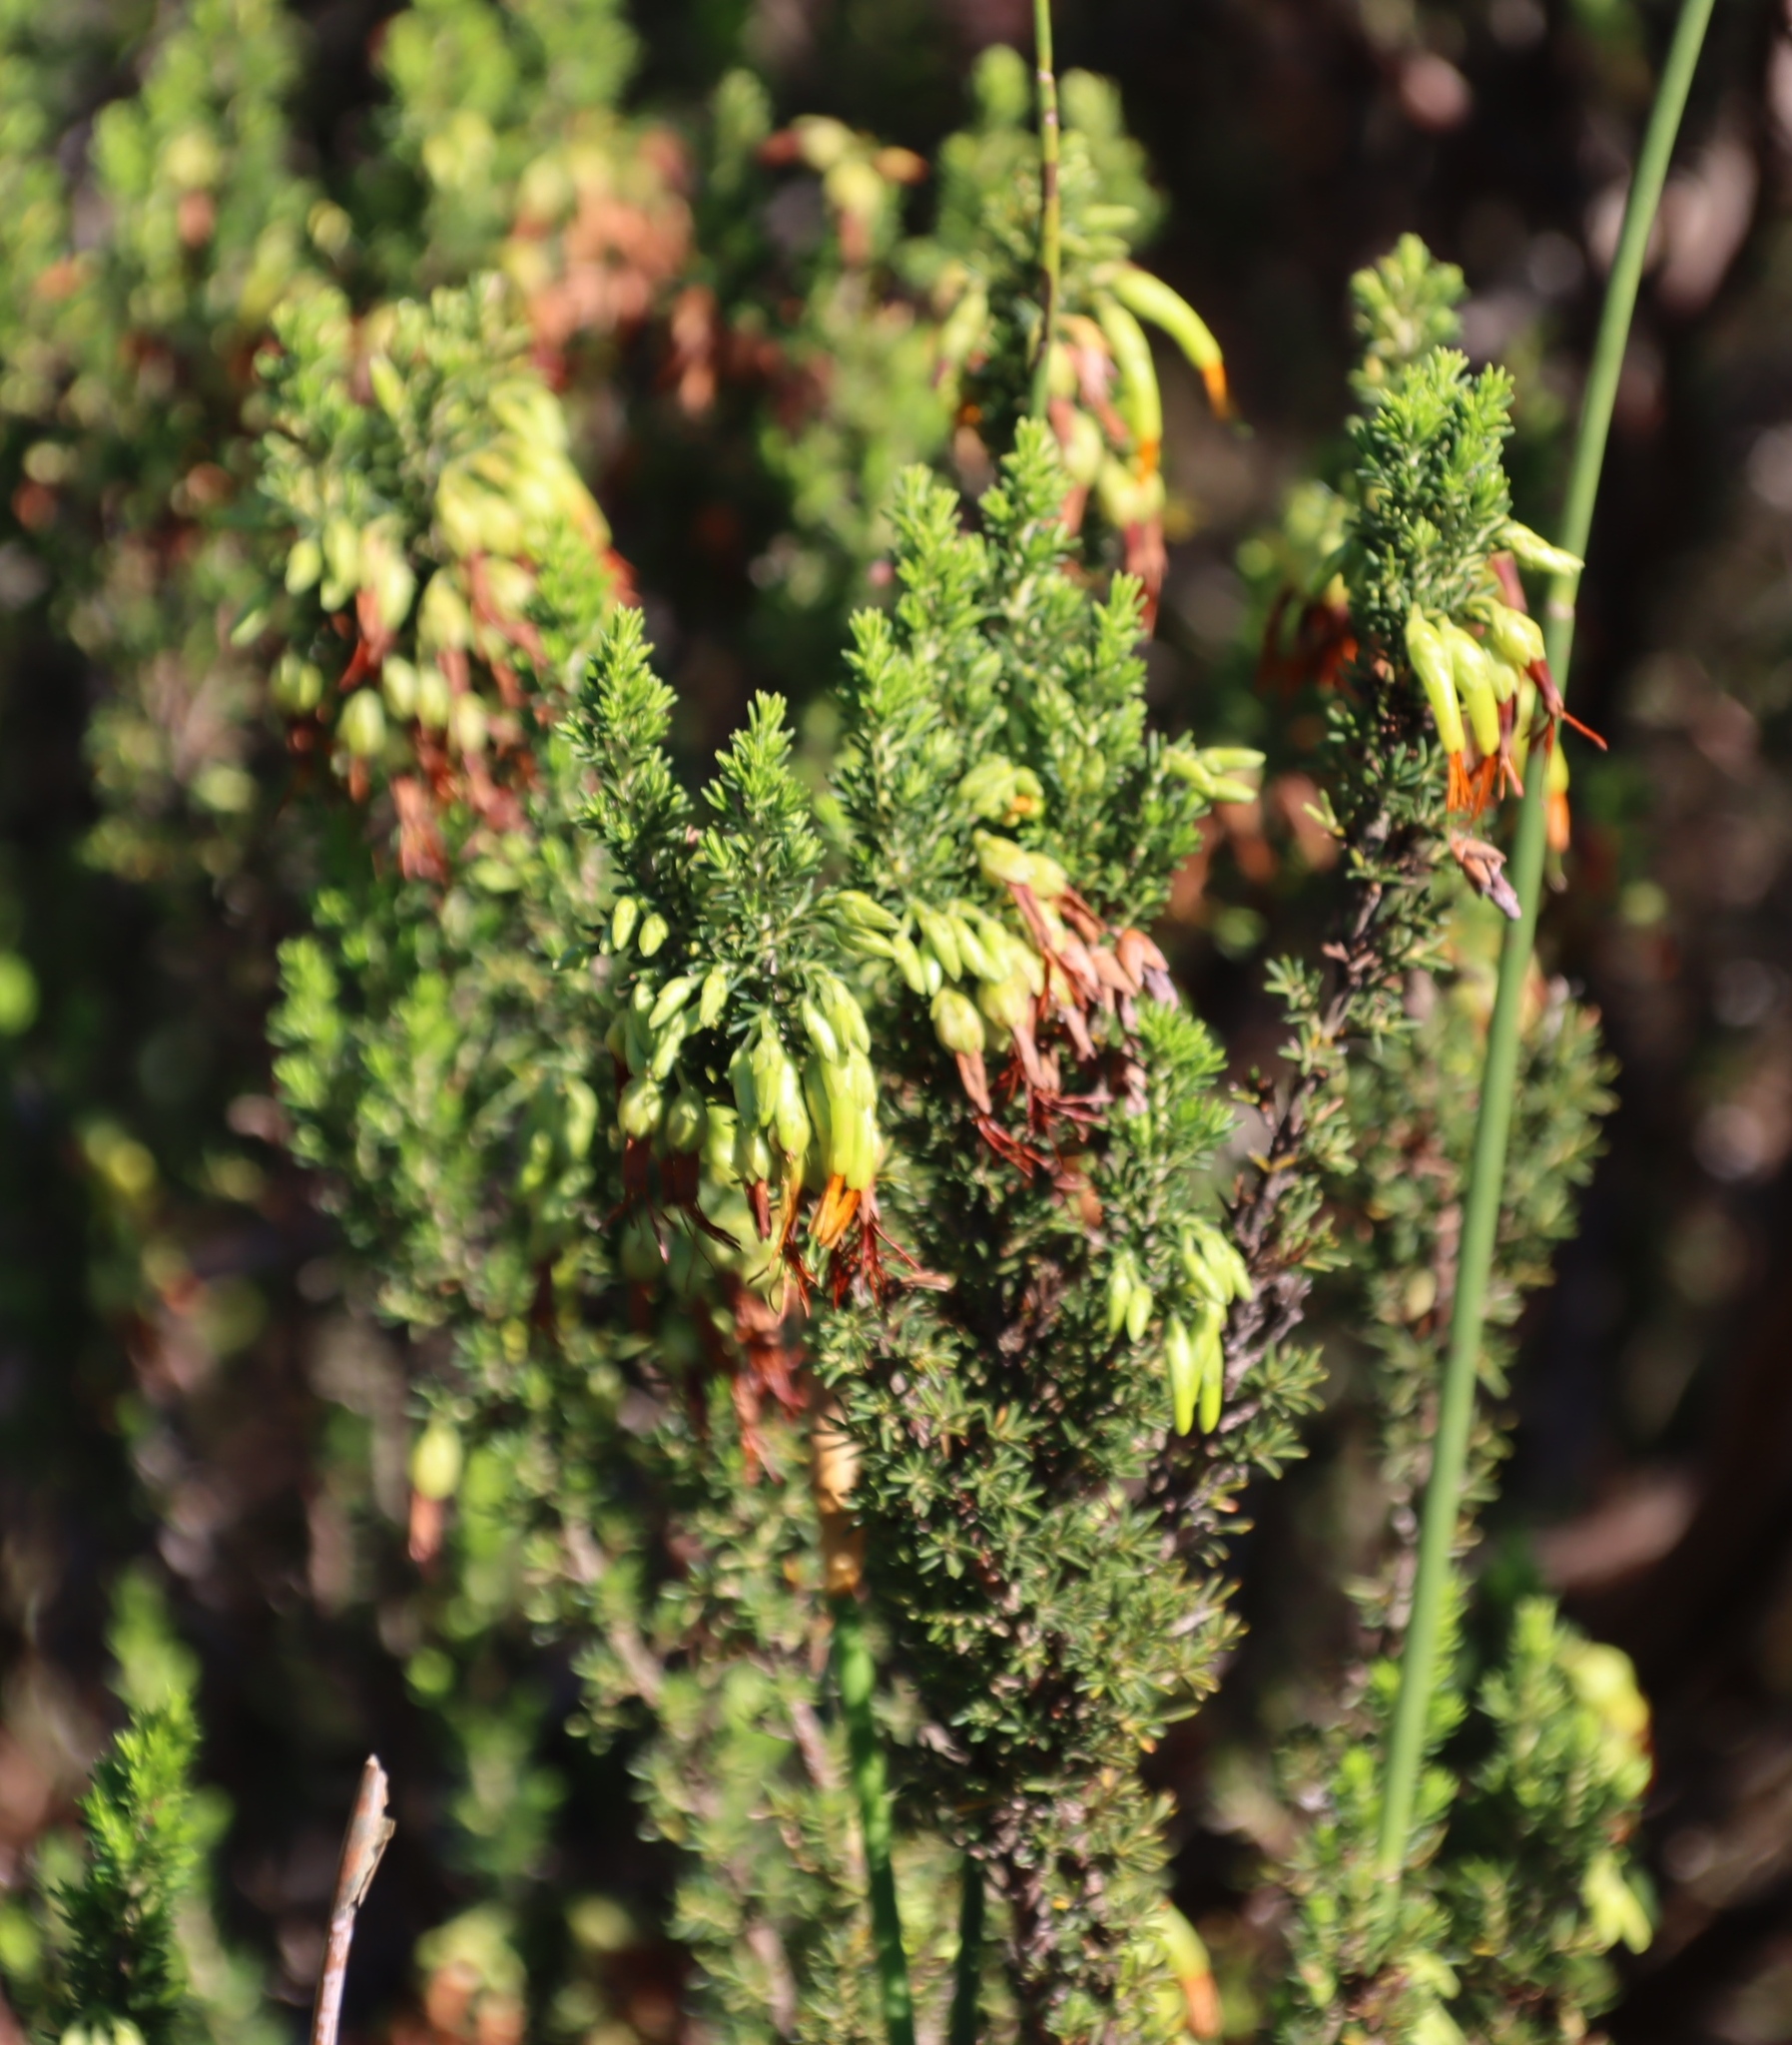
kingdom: Plantae
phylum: Tracheophyta
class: Magnoliopsida
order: Ericales
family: Ericaceae
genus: Erica
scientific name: Erica coccinea
